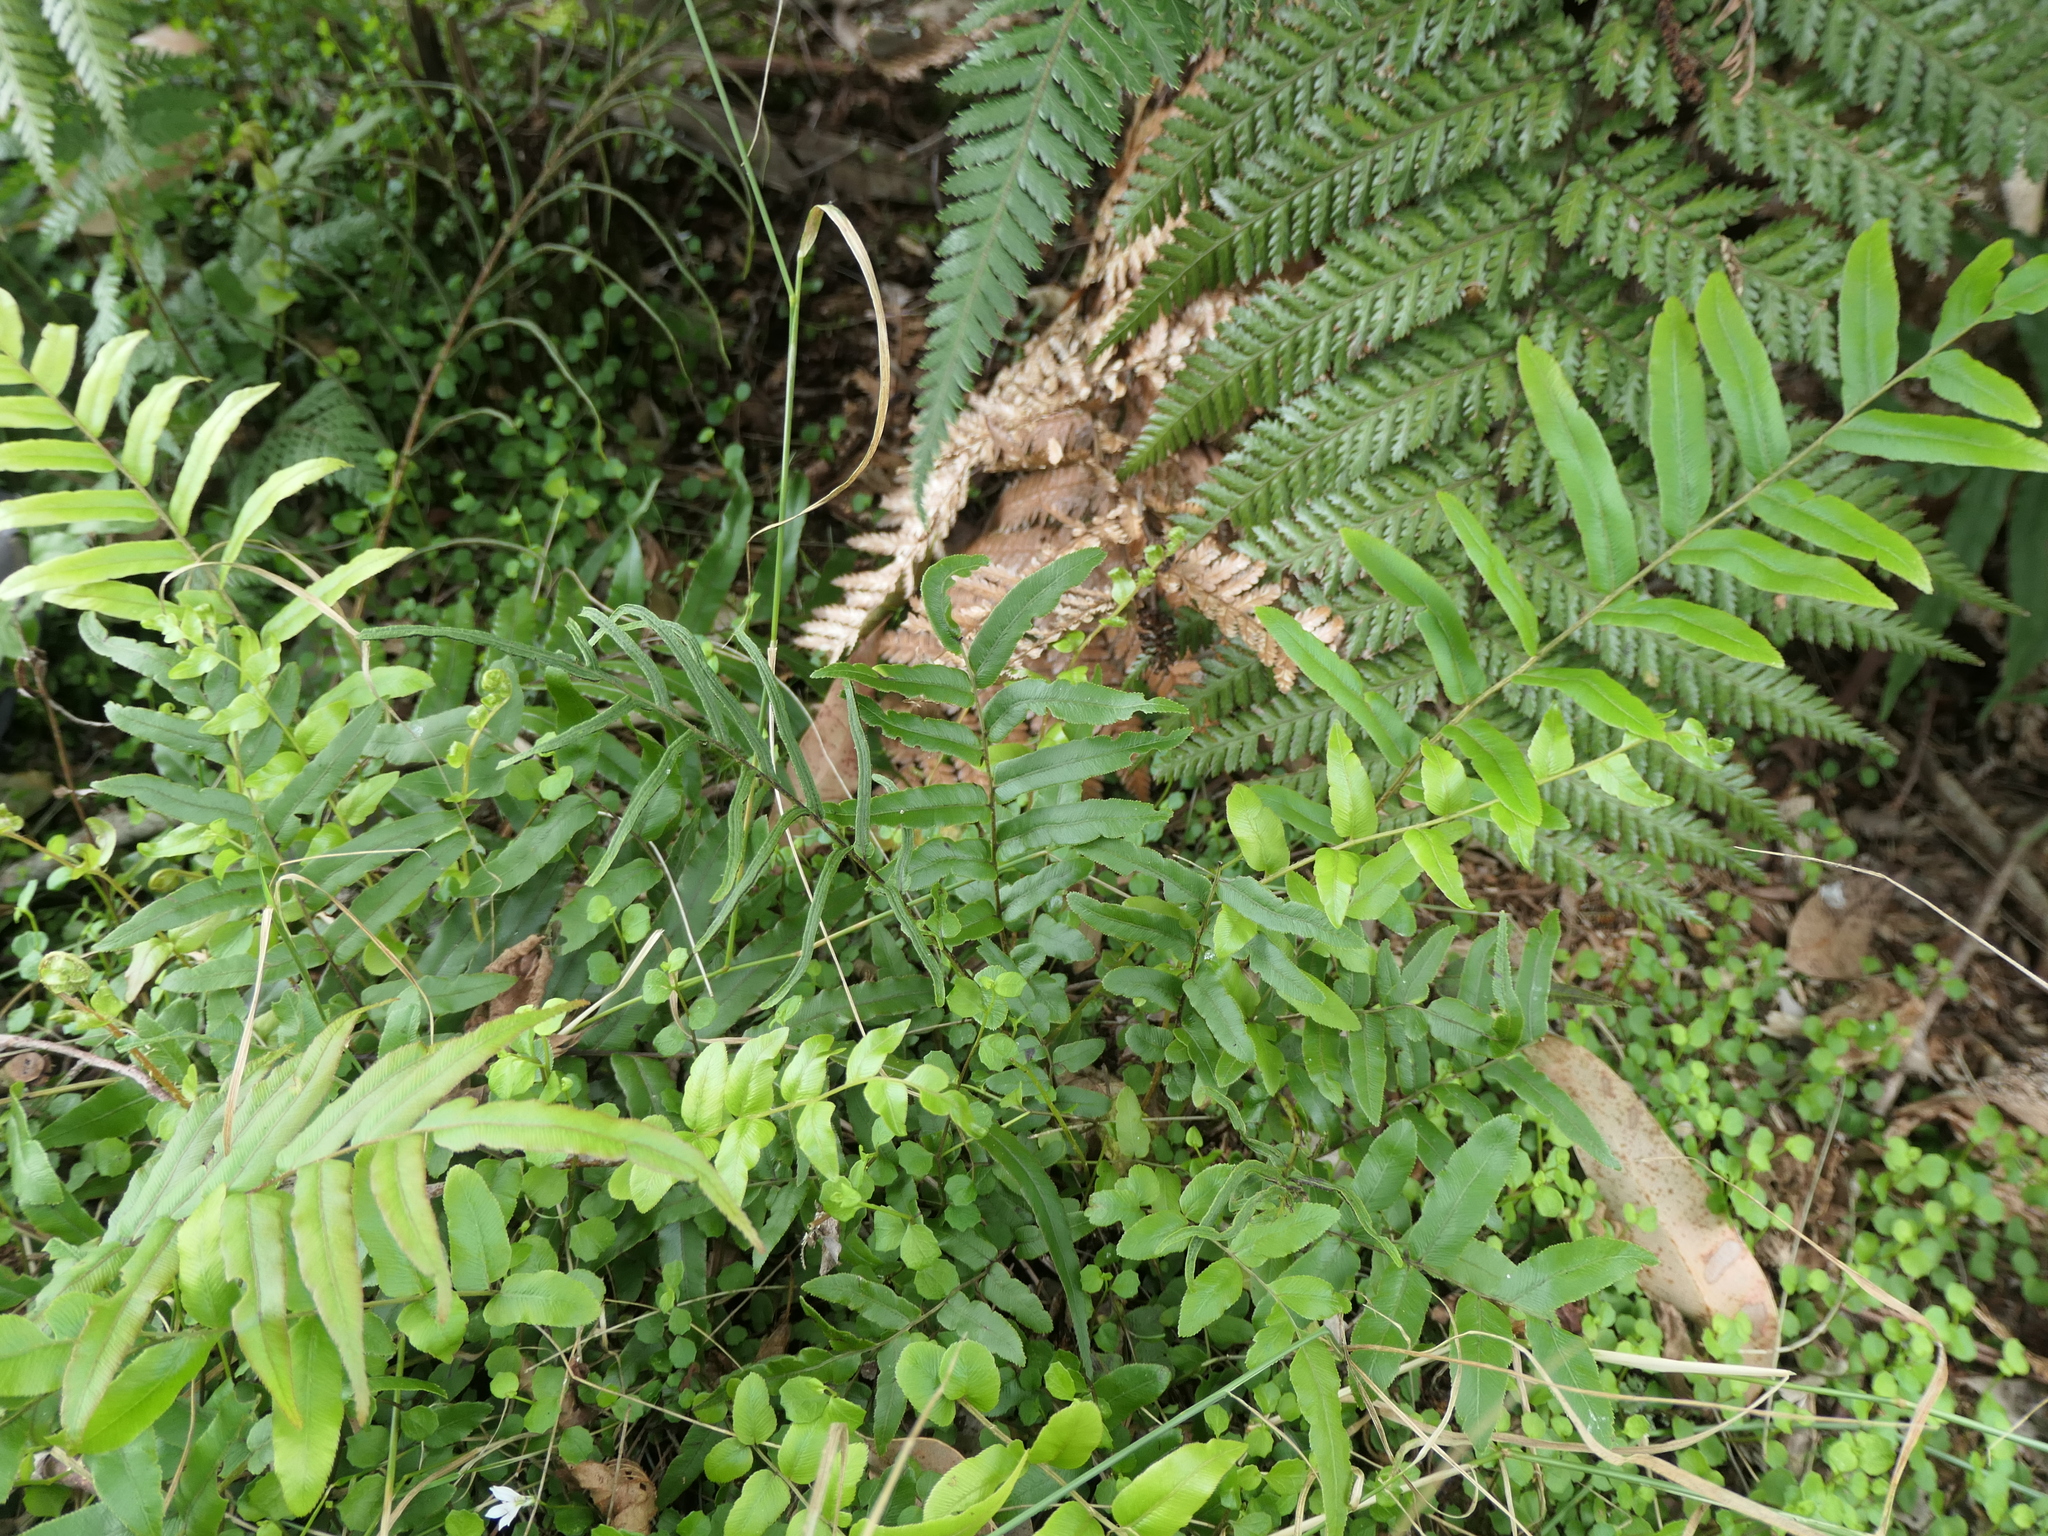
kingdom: Plantae
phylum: Tracheophyta
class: Polypodiopsida
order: Polypodiales
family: Blechnaceae
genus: Parablechnum
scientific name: Parablechnum minus
